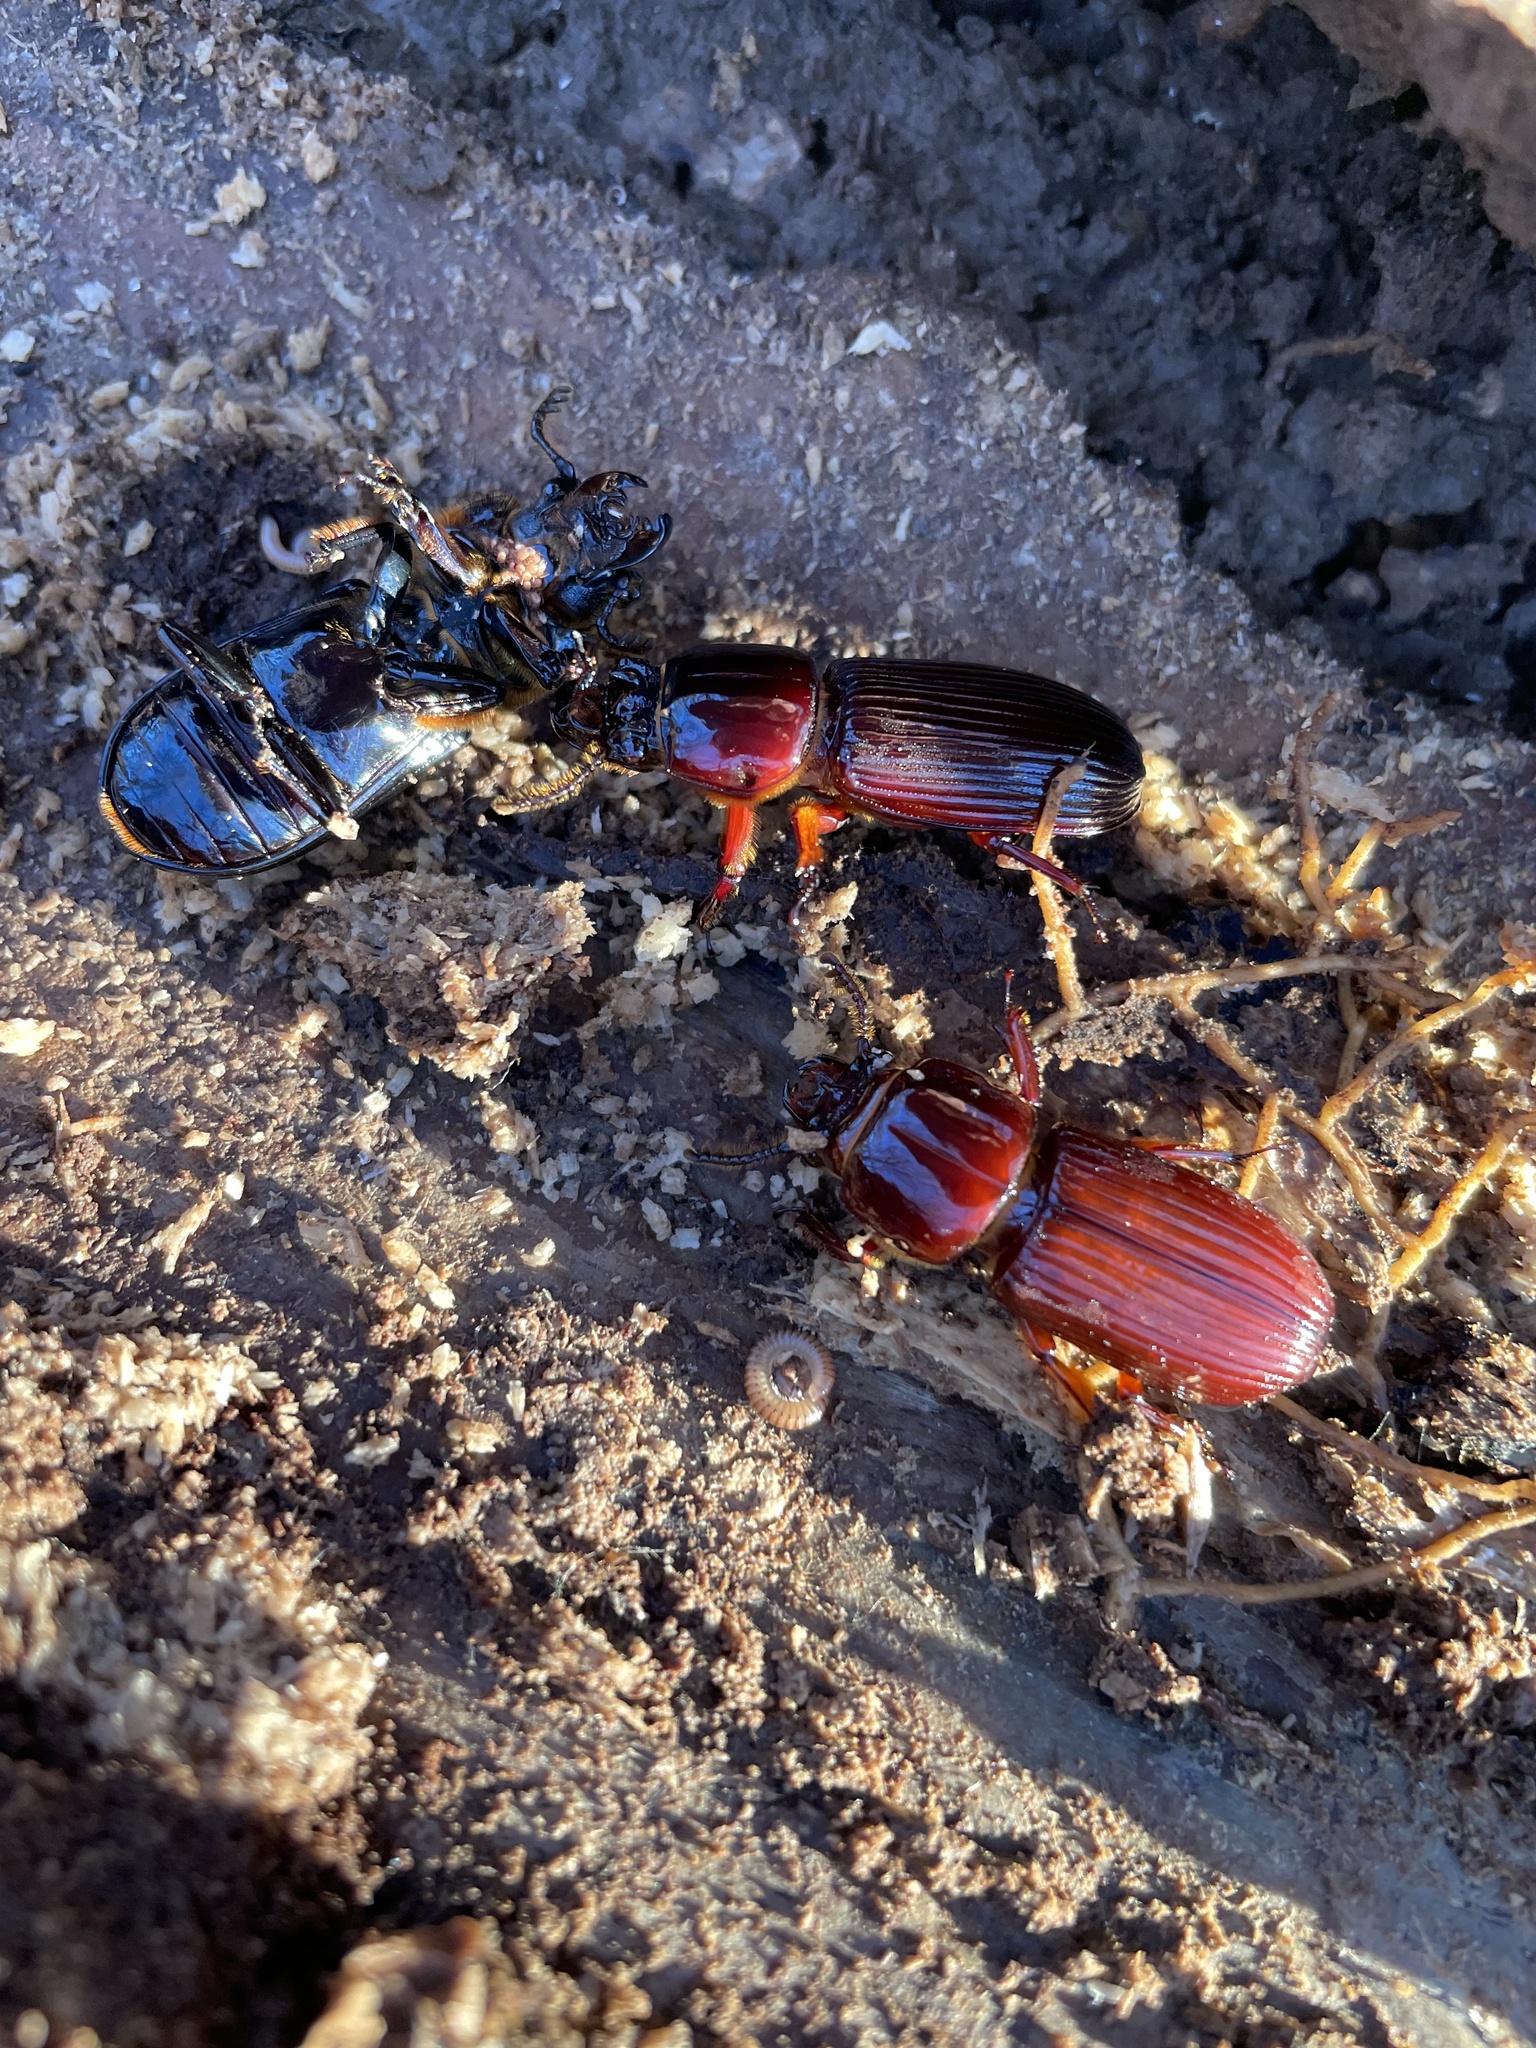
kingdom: Animalia
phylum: Arthropoda
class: Insecta
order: Coleoptera
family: Passalidae
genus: Odontotaenius
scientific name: Odontotaenius disjunctus
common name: Patent leather beetle
